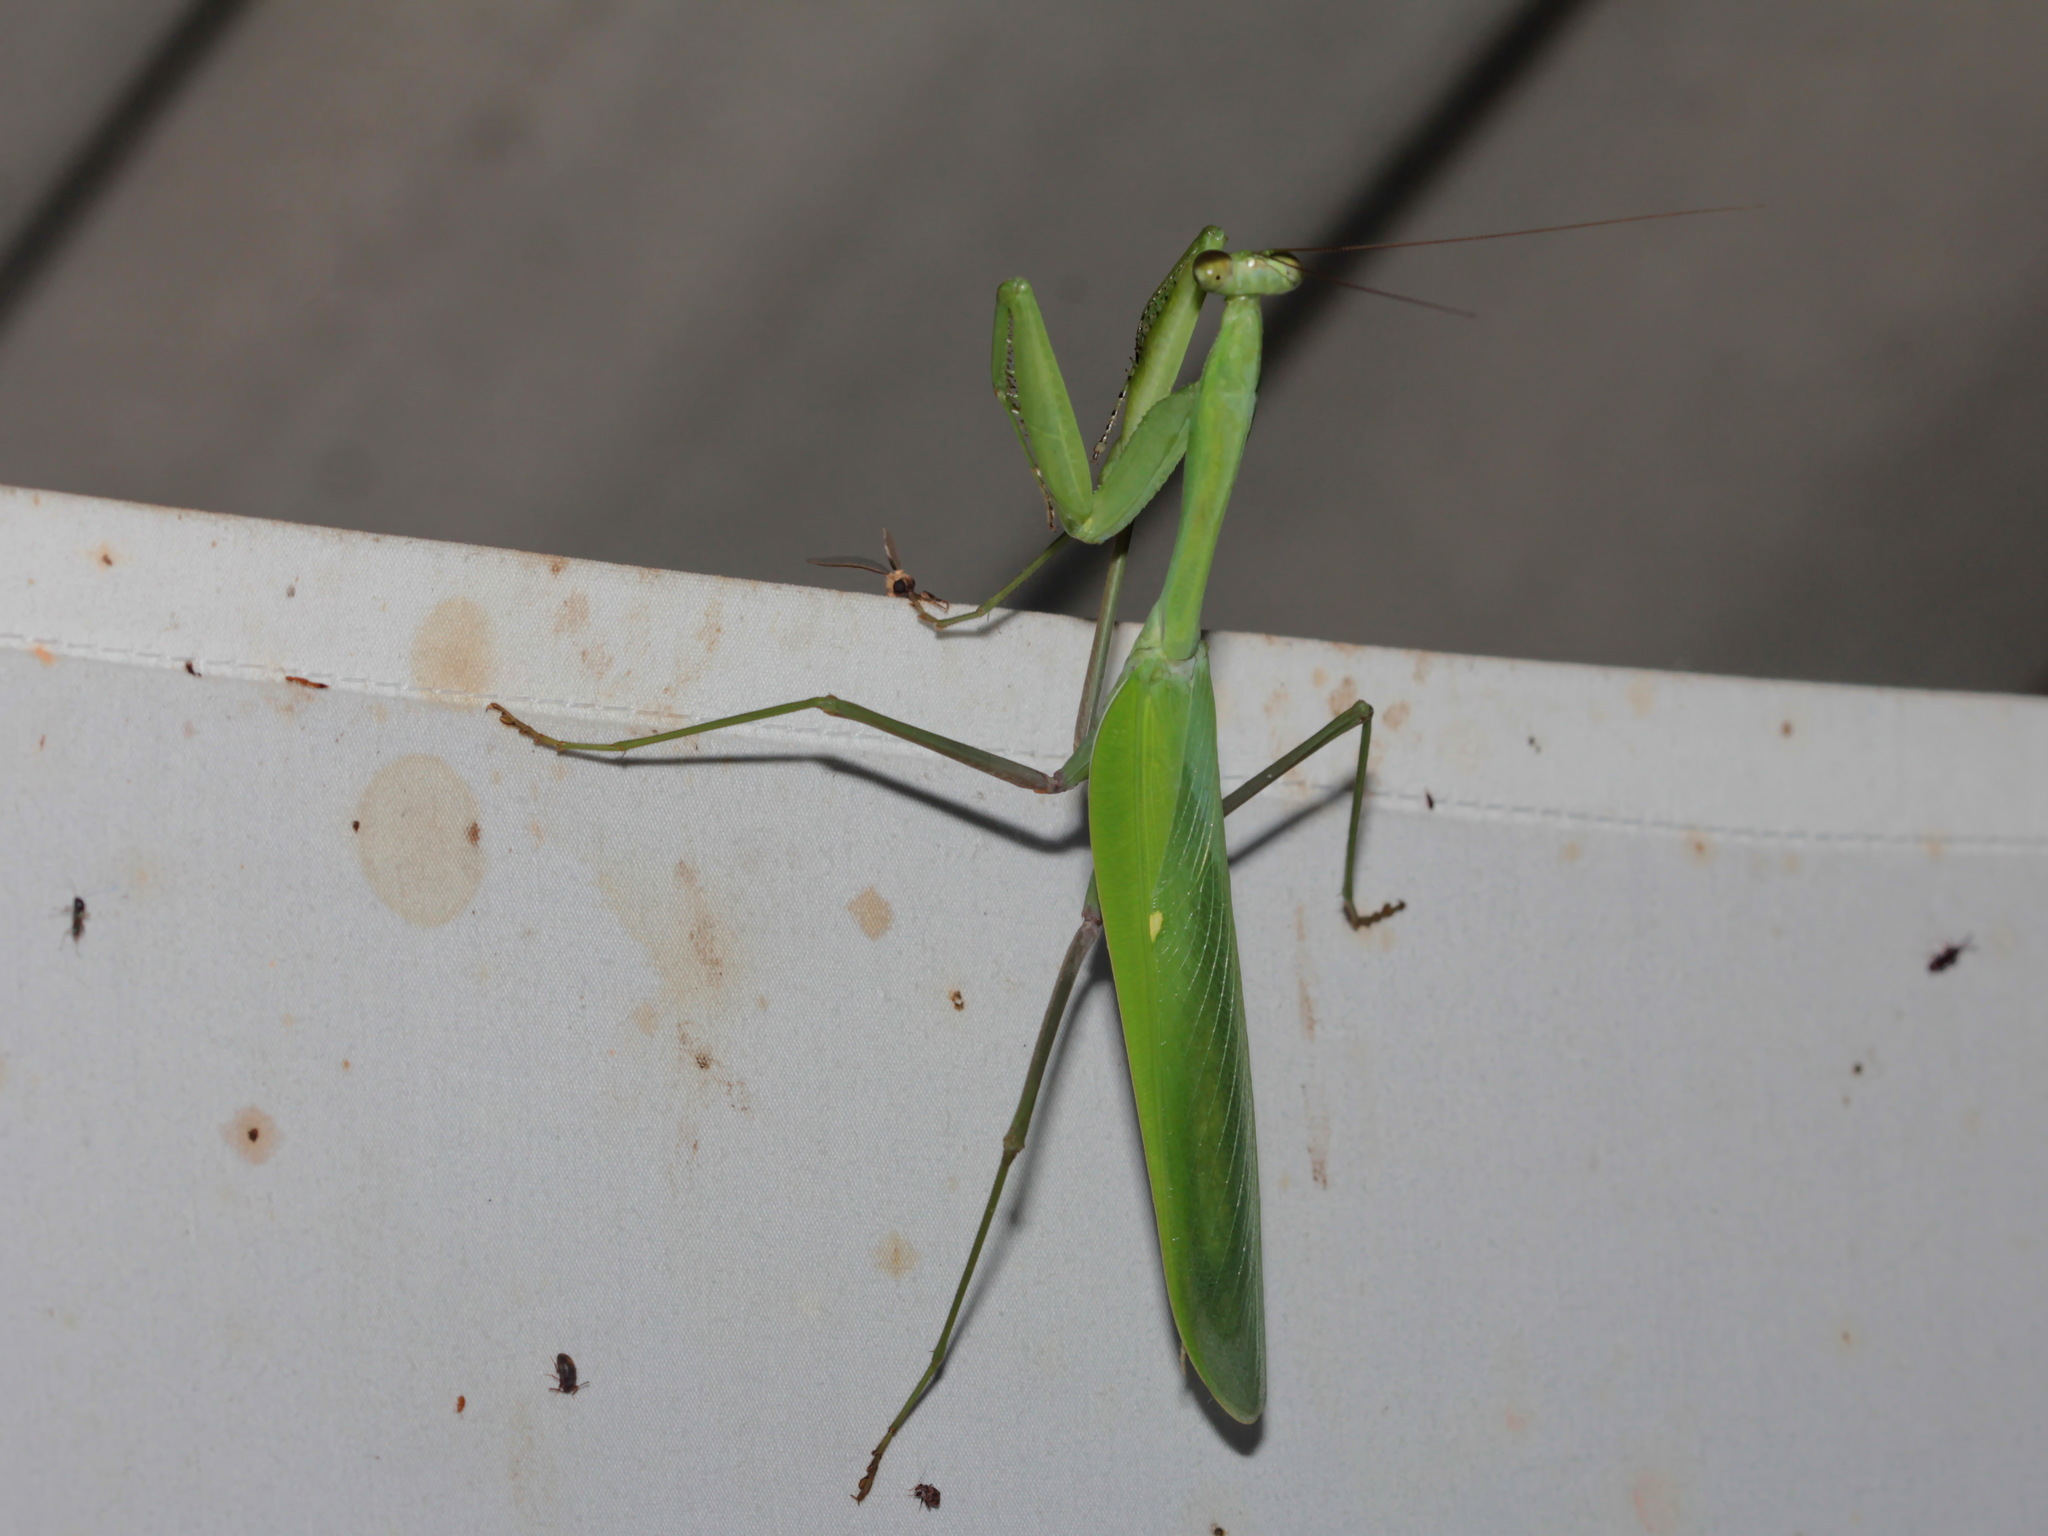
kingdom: Animalia
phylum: Arthropoda
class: Insecta
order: Mantodea
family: Mantidae
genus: Hierodula
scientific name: Hierodula confusa
